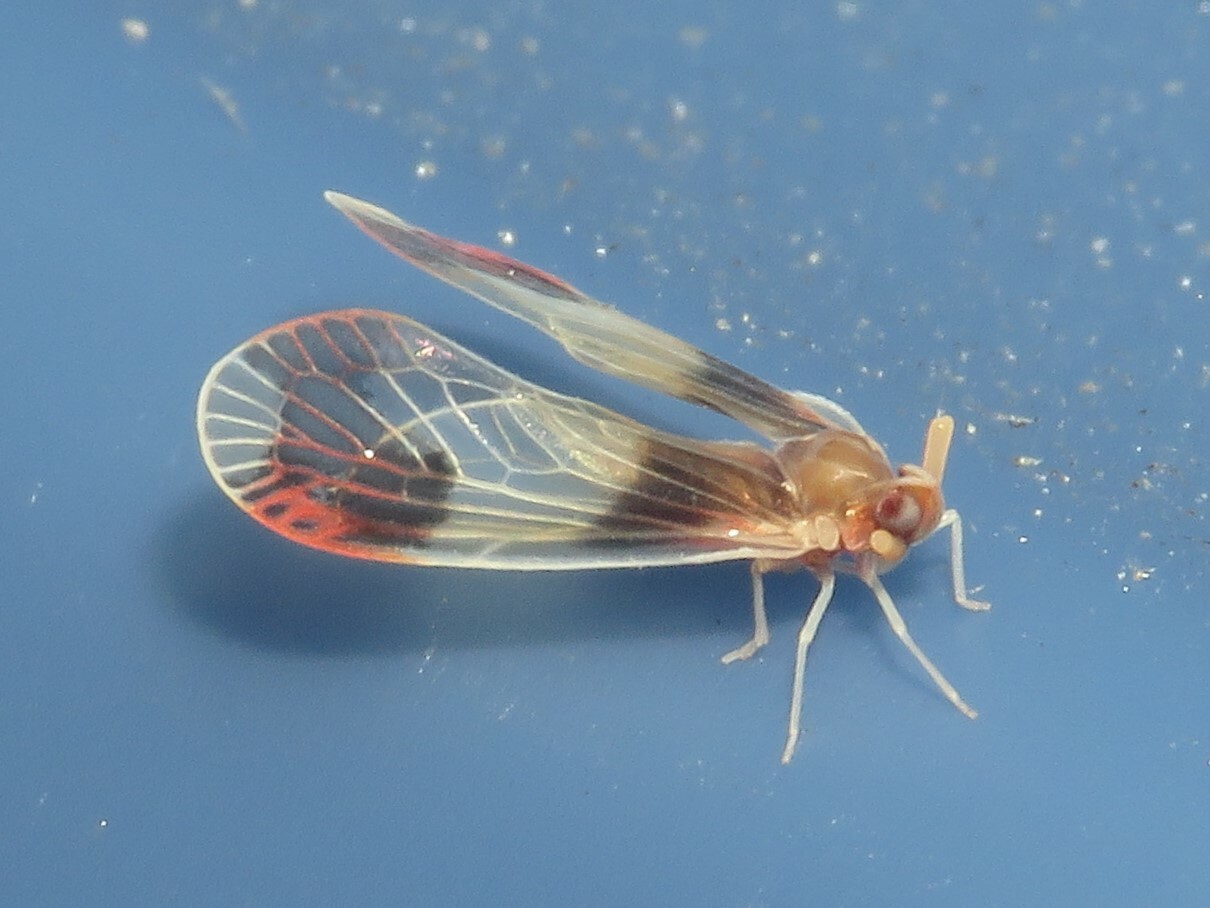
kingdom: Animalia
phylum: Arthropoda
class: Insecta
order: Hemiptera
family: Derbidae
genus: Anotia
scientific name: Anotia uhleri
